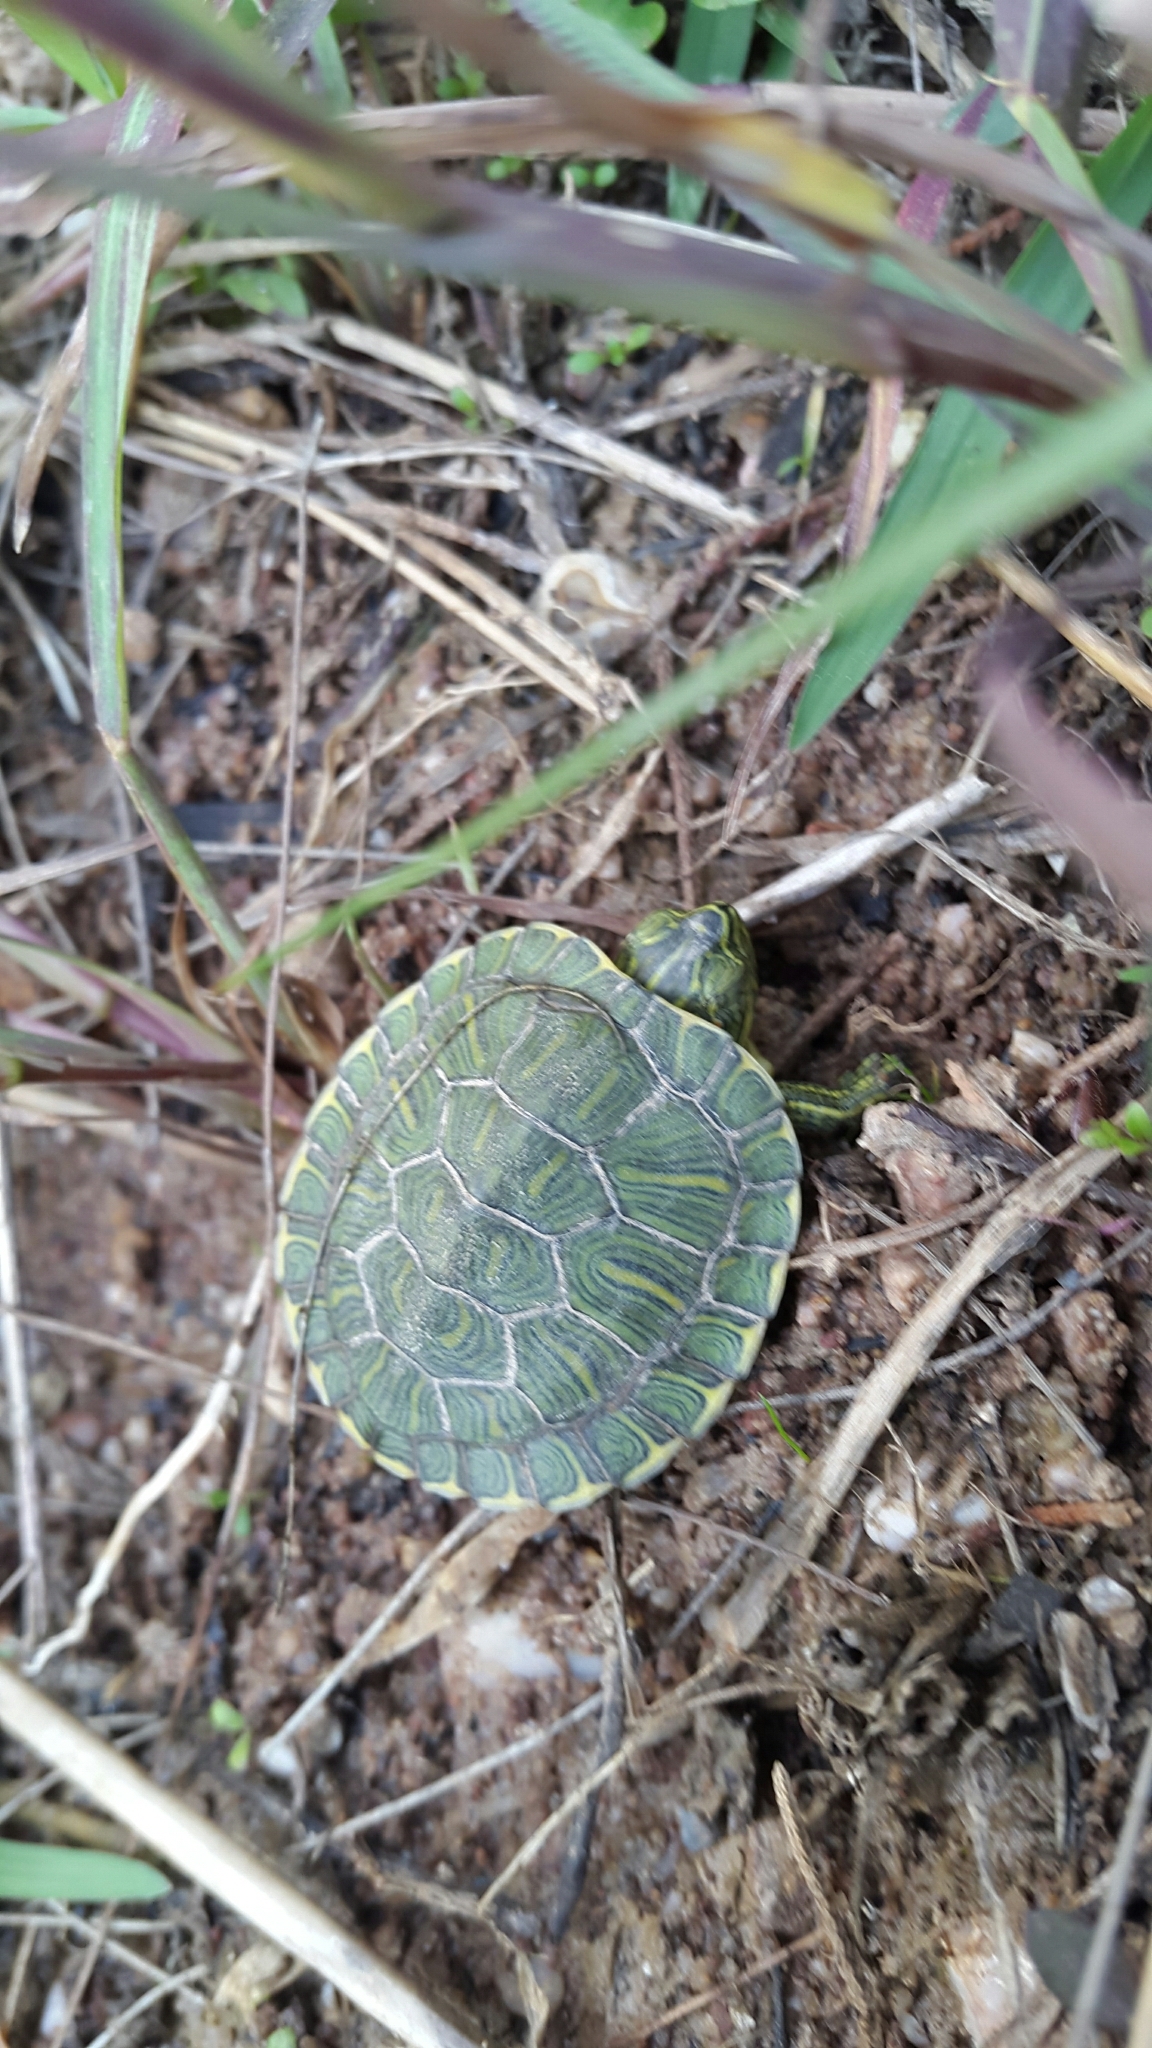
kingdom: Animalia
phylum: Chordata
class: Testudines
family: Emydidae
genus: Trachemys
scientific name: Trachemys scripta
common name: Slider
